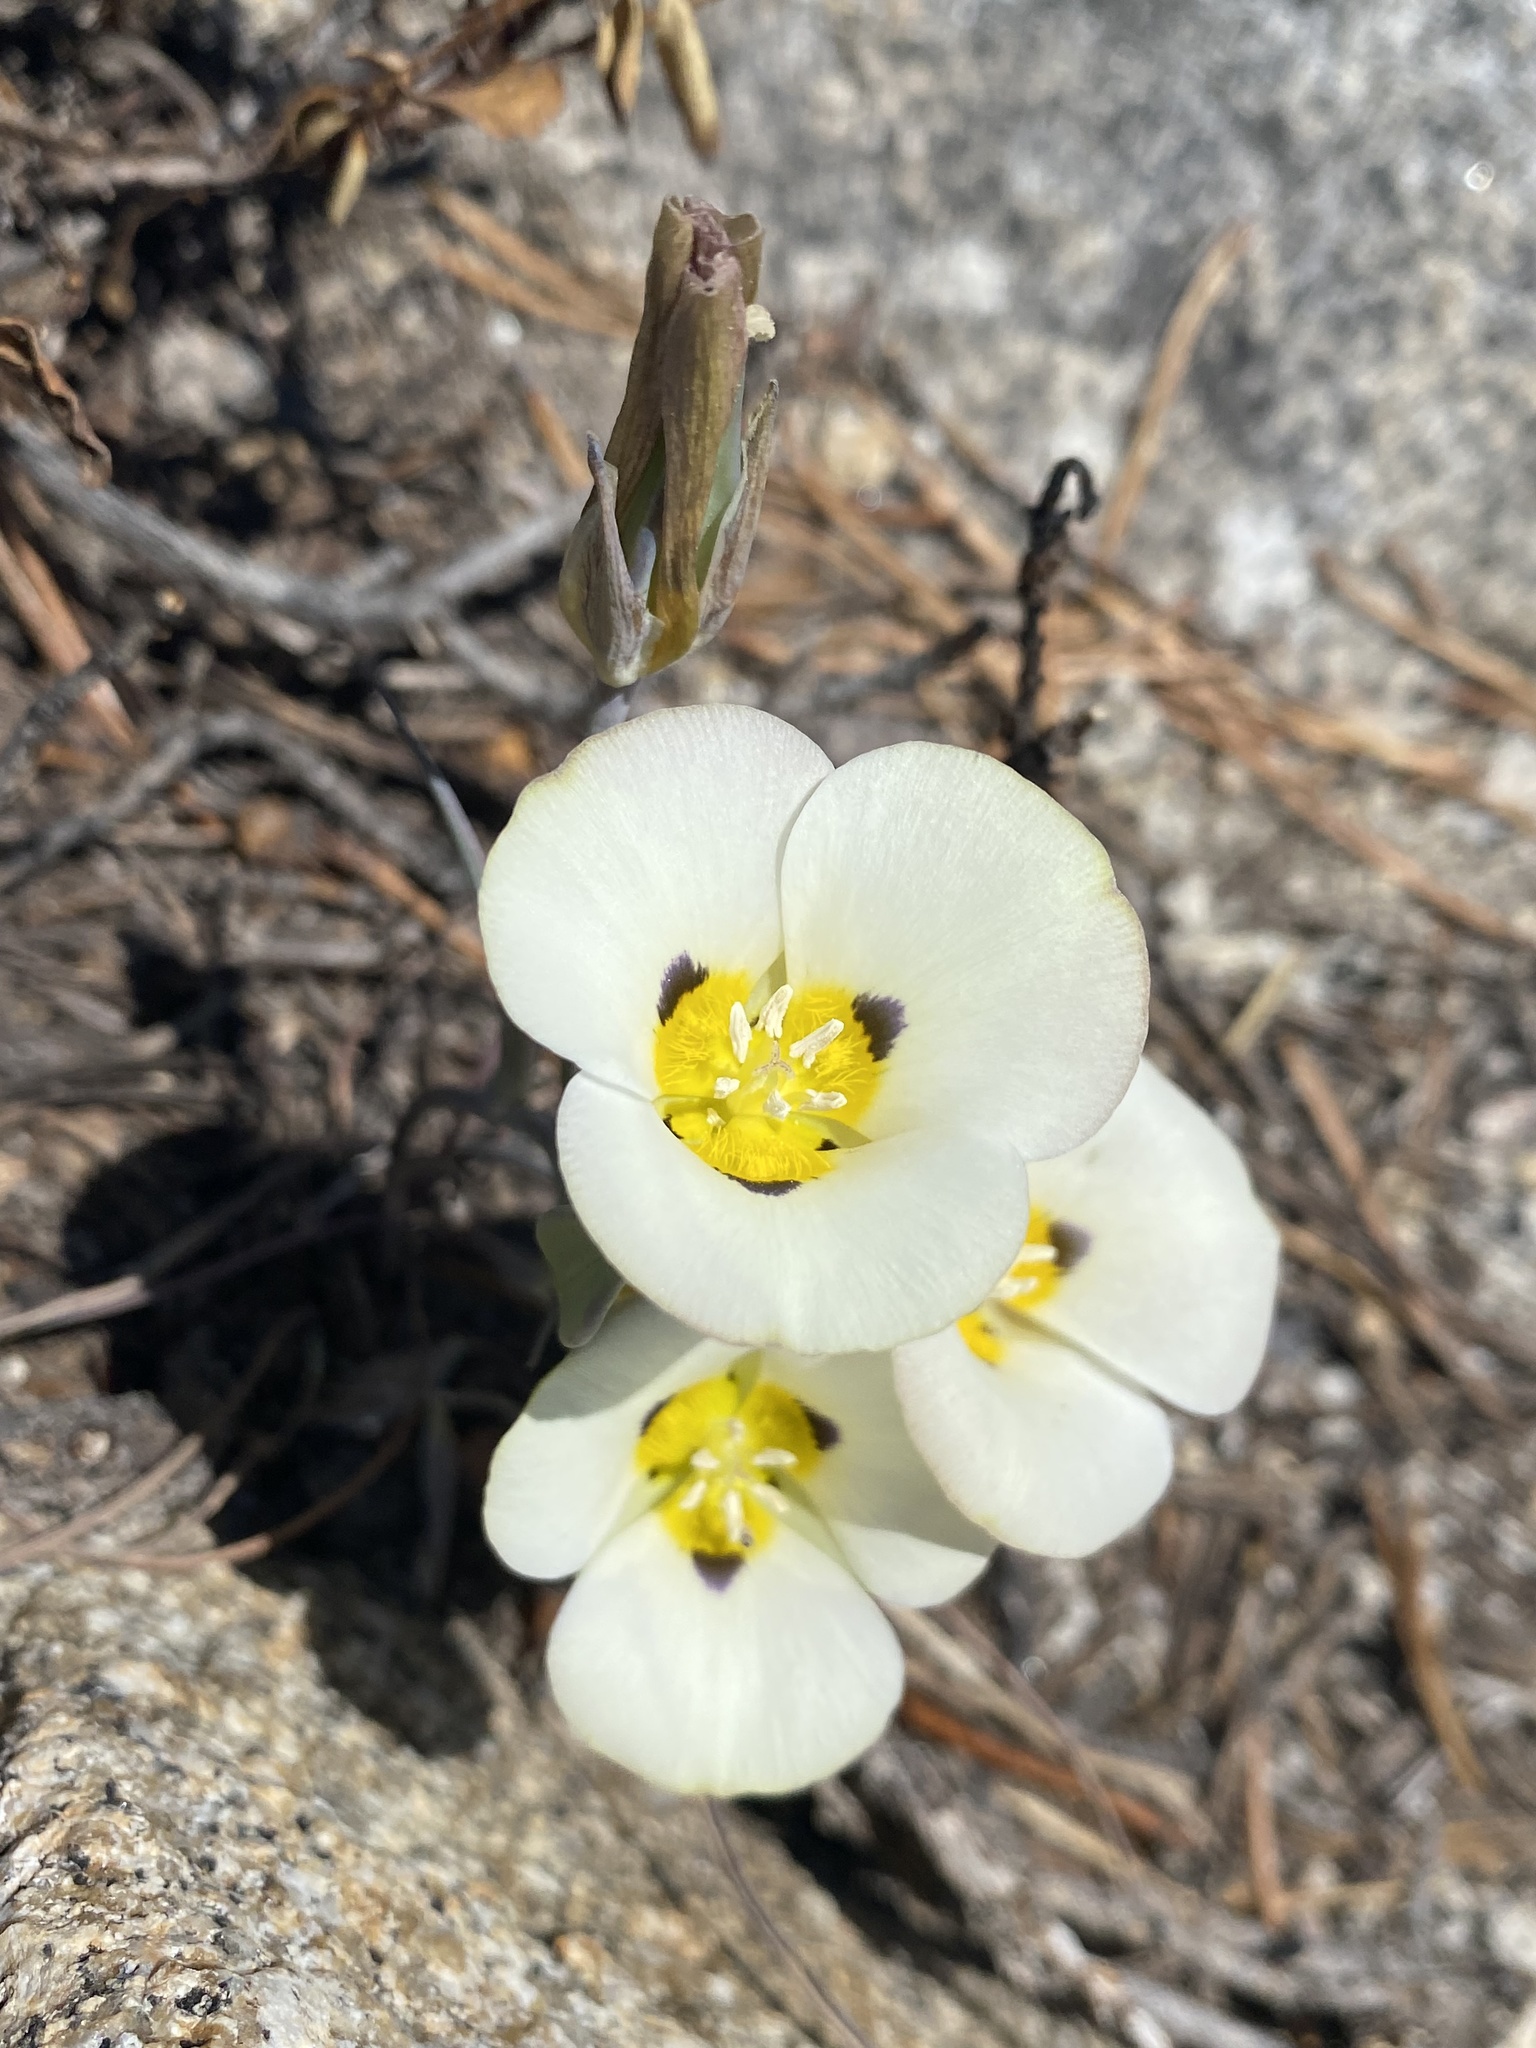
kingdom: Plantae
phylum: Tracheophyta
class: Liliopsida
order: Liliales
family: Liliaceae
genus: Calochortus
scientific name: Calochortus leichtlinii
